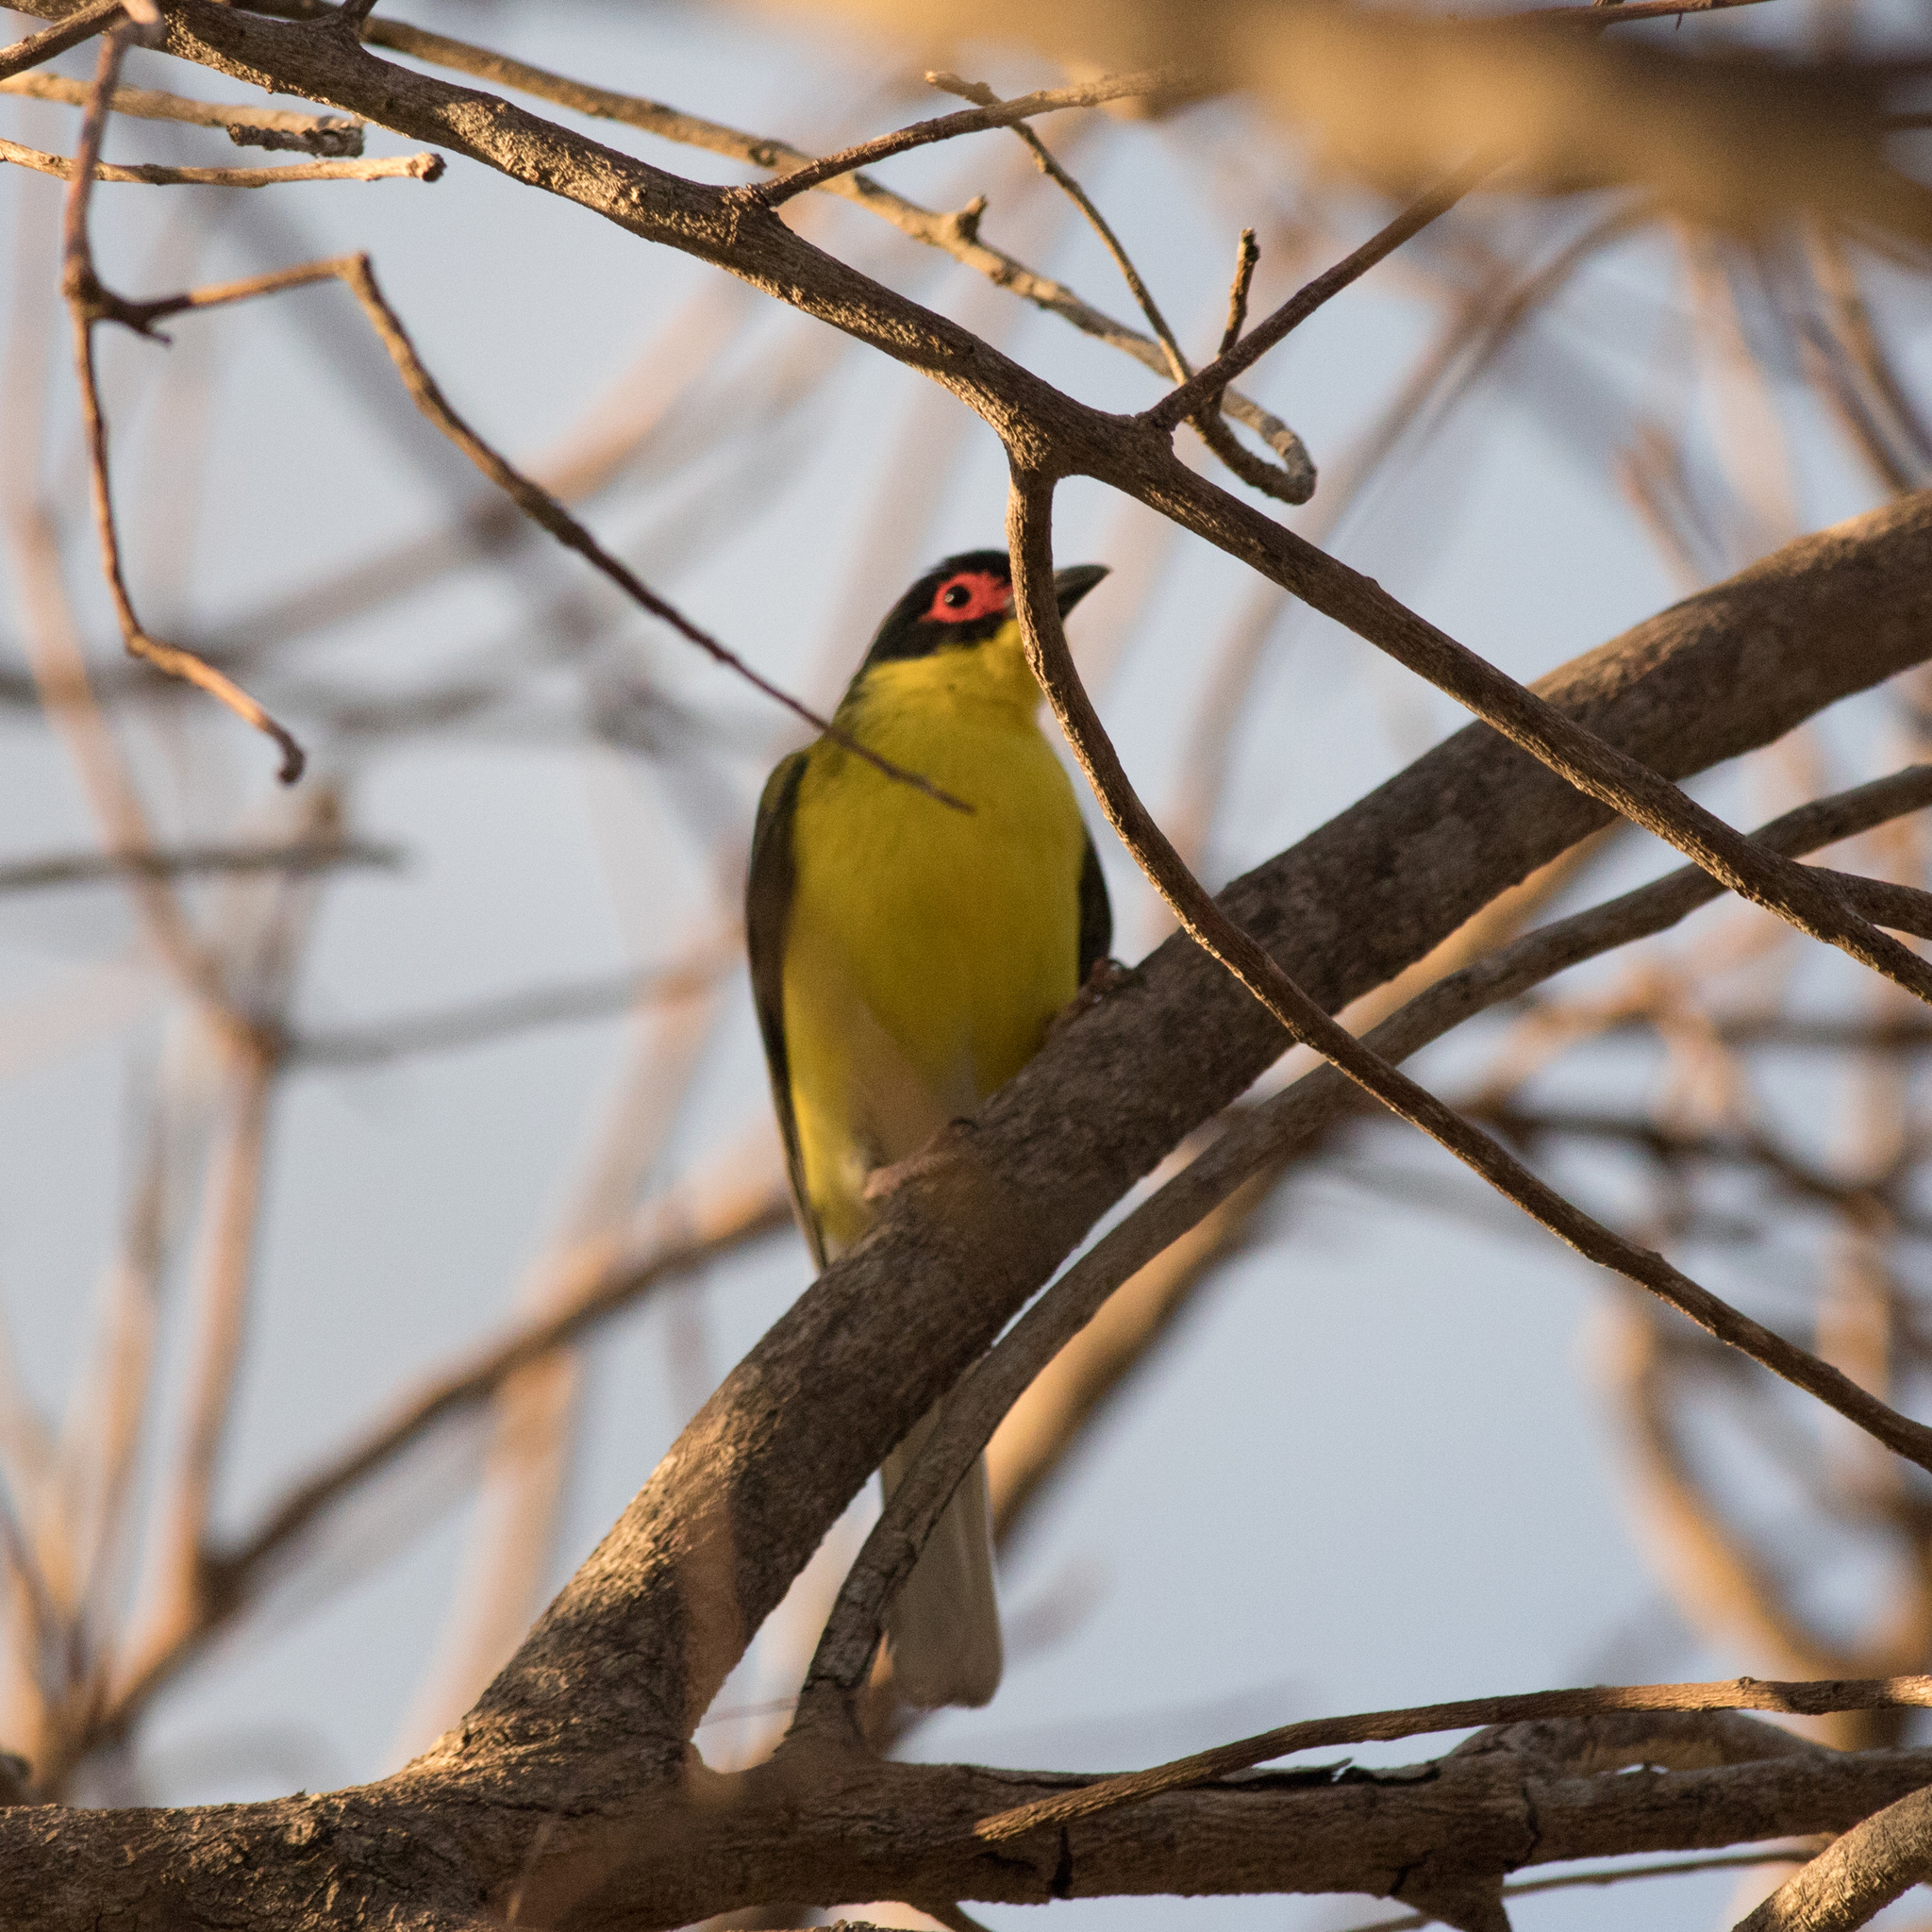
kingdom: Animalia
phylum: Chordata
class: Aves
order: Passeriformes
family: Oriolidae
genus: Sphecotheres
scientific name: Sphecotheres vieilloti
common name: Australasian figbird
